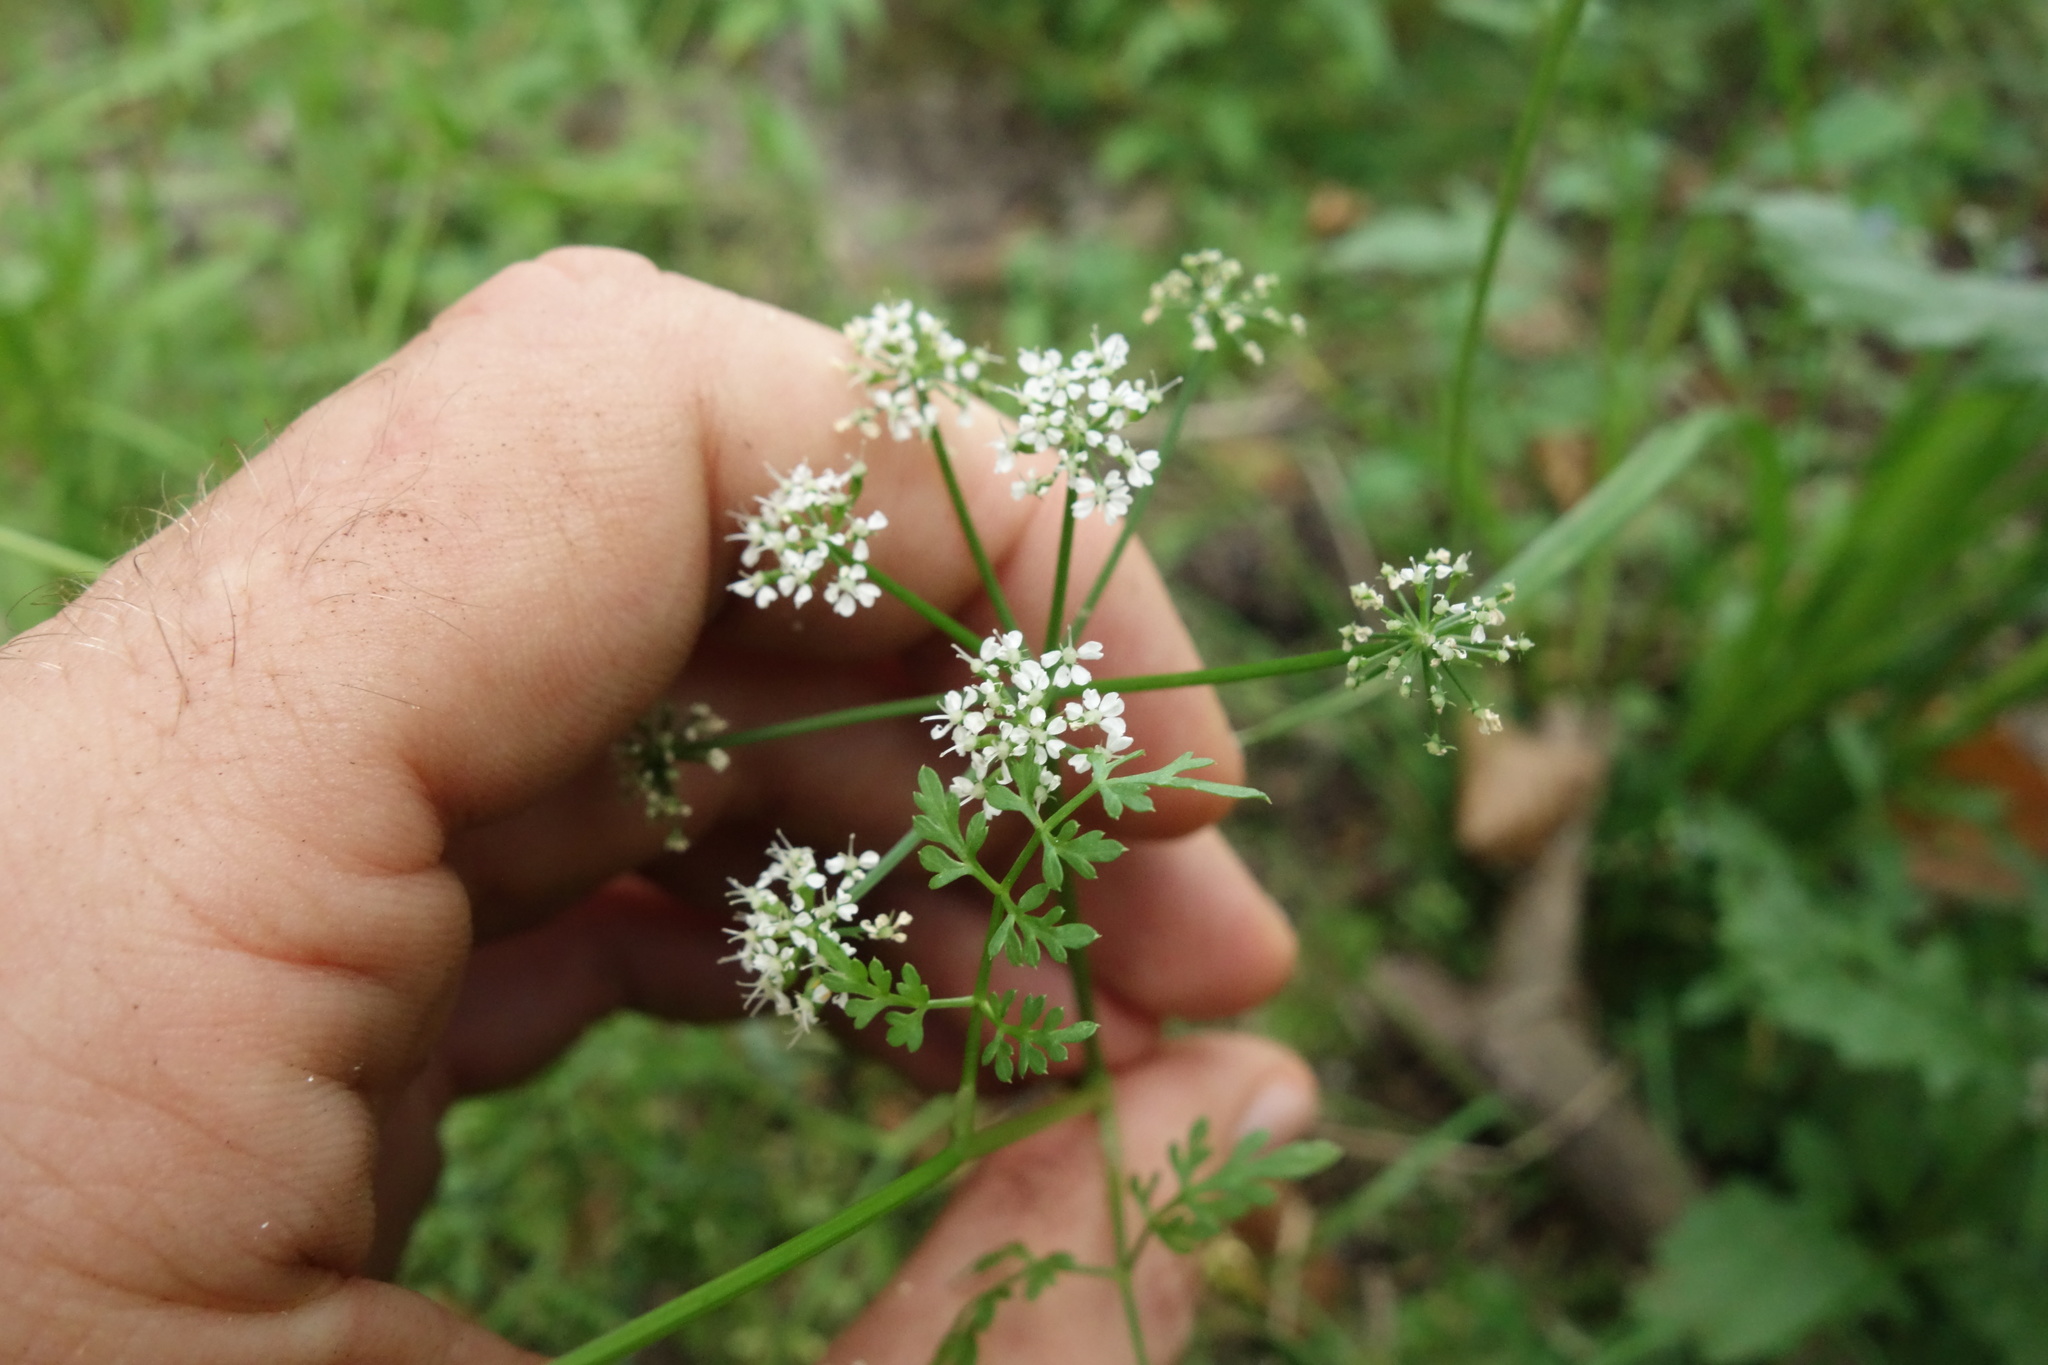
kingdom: Plantae
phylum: Tracheophyta
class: Magnoliopsida
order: Apiales
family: Apiaceae
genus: Oenanthe
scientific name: Oenanthe aquatica
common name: Fine-leaved water-dropwort
